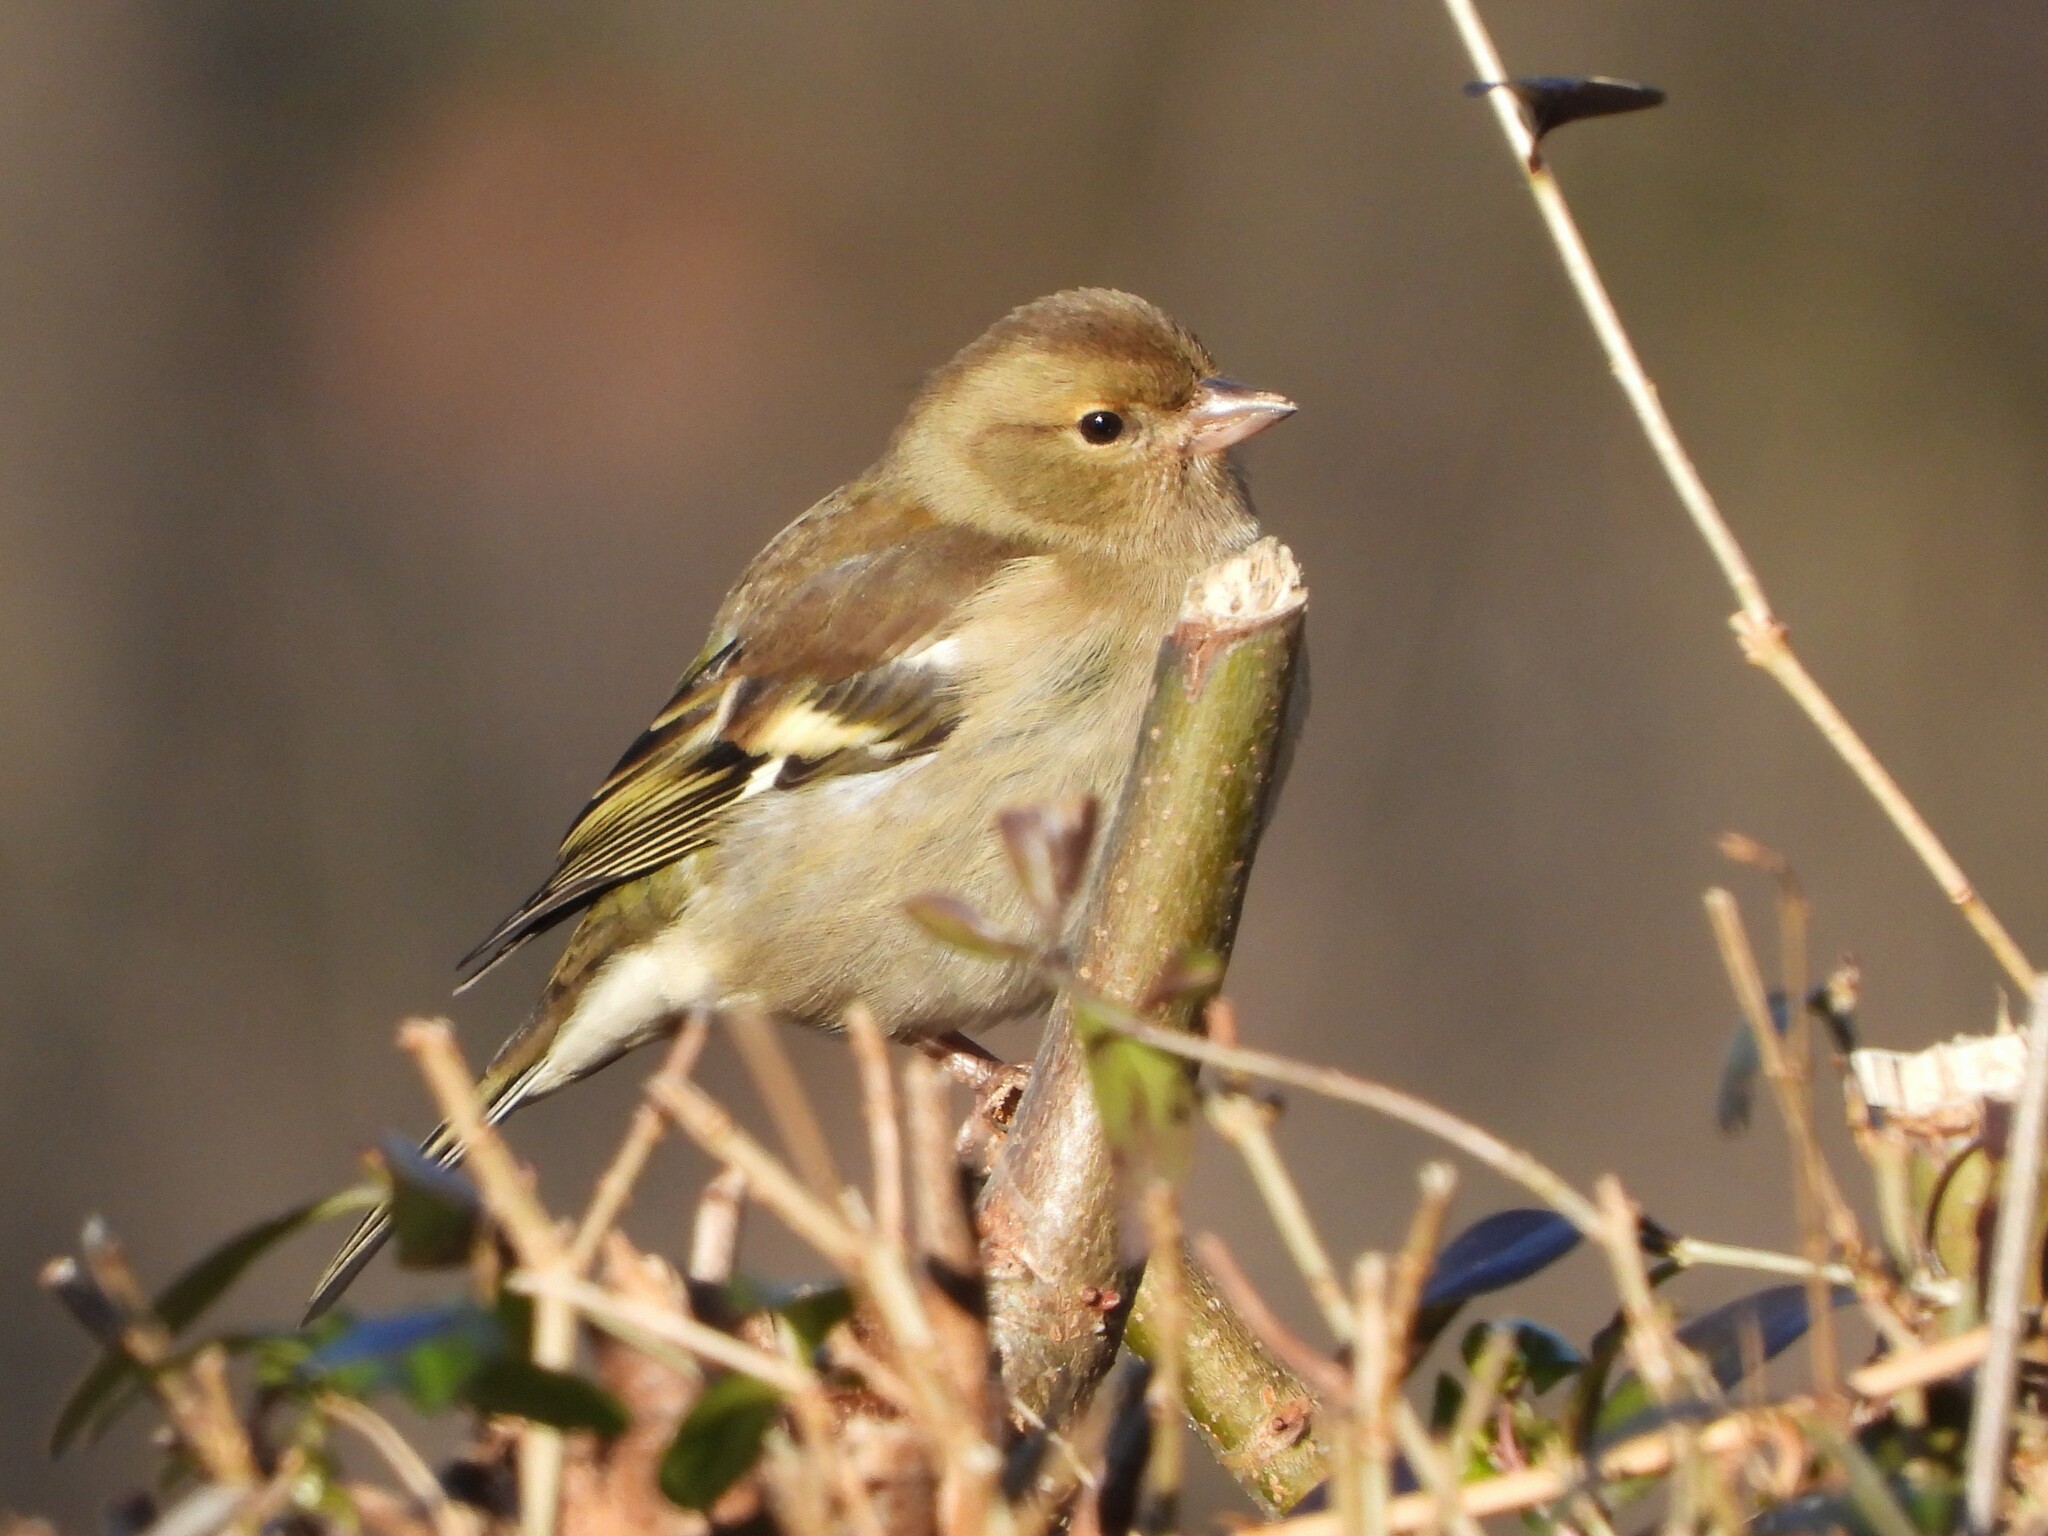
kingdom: Animalia
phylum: Chordata
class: Aves
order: Passeriformes
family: Fringillidae
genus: Fringilla
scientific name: Fringilla coelebs
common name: Common chaffinch
